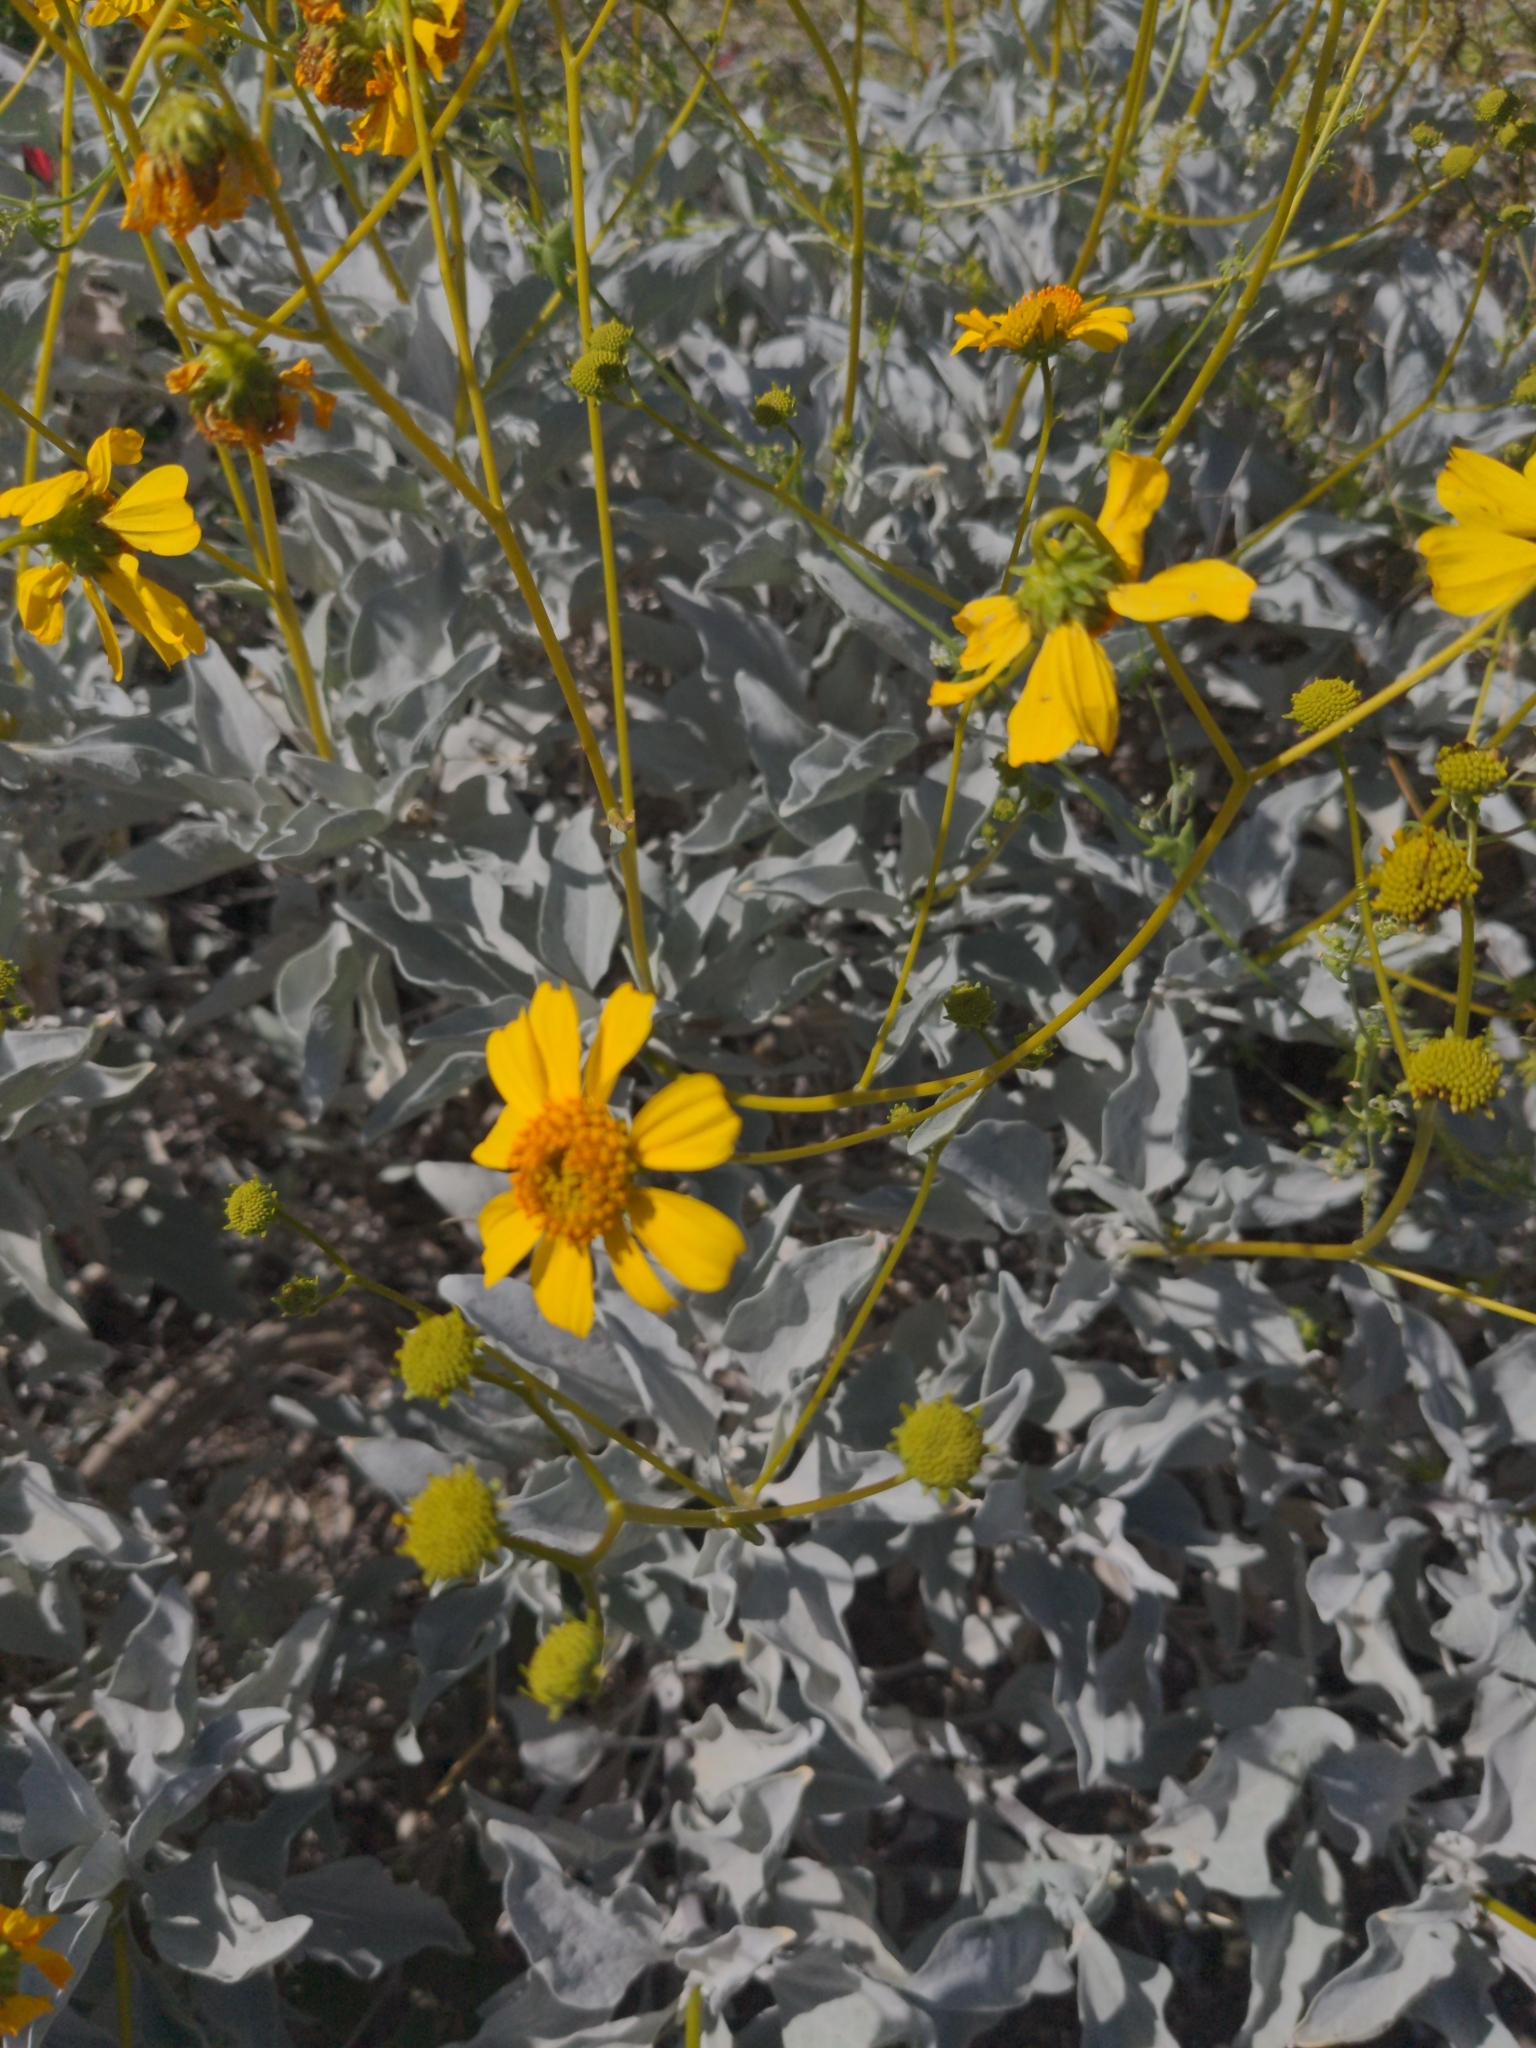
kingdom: Plantae
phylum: Tracheophyta
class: Magnoliopsida
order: Asterales
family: Asteraceae
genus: Encelia
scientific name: Encelia farinosa
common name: Brittlebush
